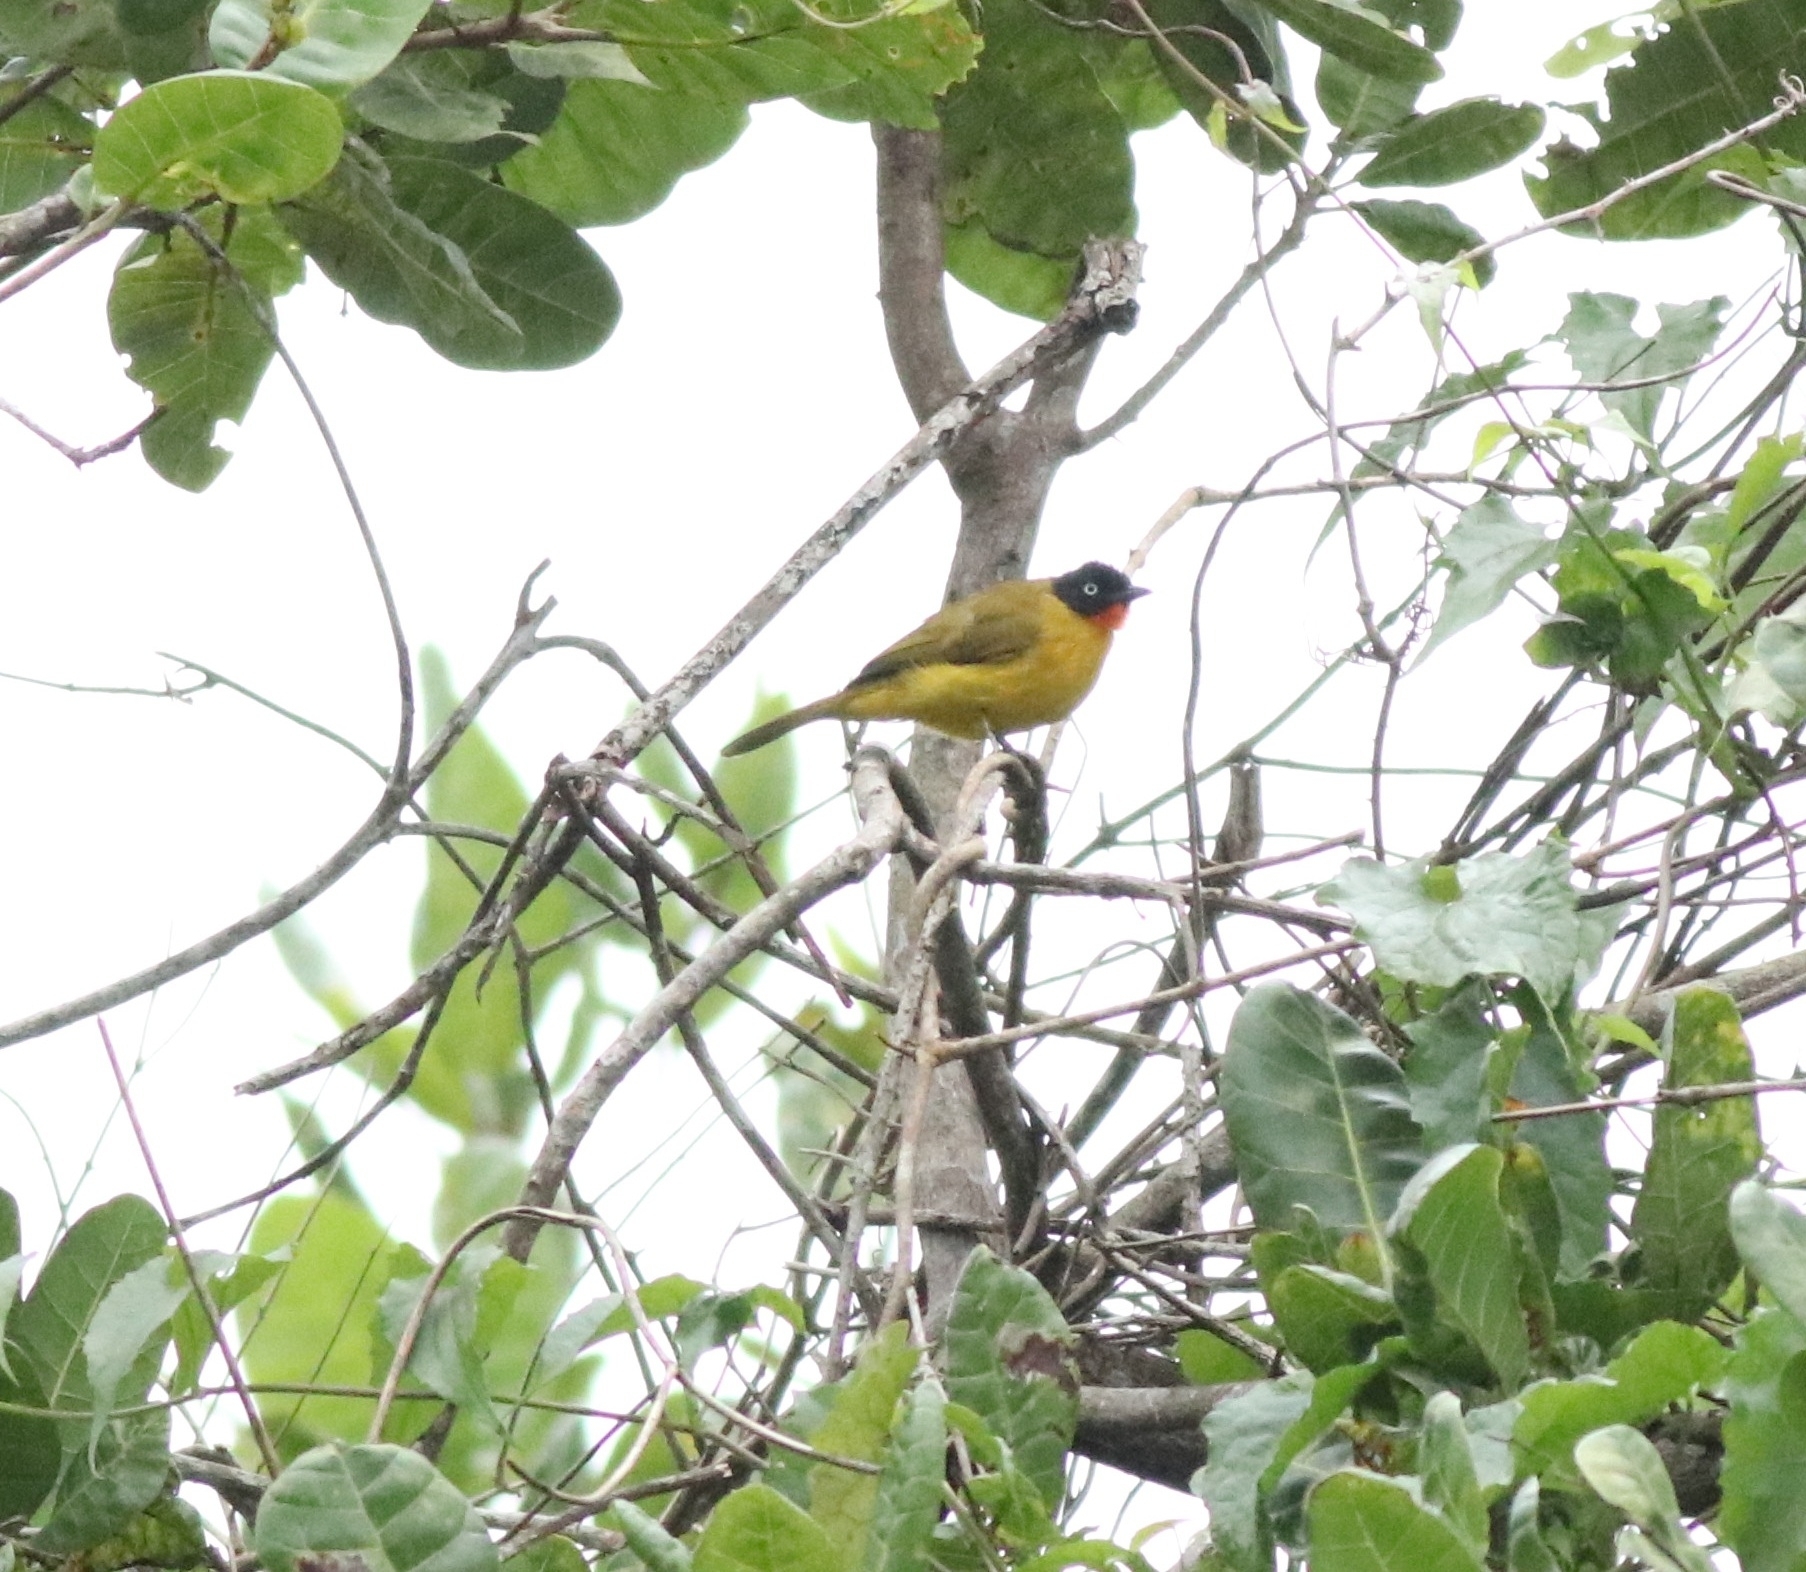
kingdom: Animalia
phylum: Chordata
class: Aves
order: Passeriformes
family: Pycnonotidae
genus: Pycnonotus
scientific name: Pycnonotus gularis
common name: Flame-throated bulbul
